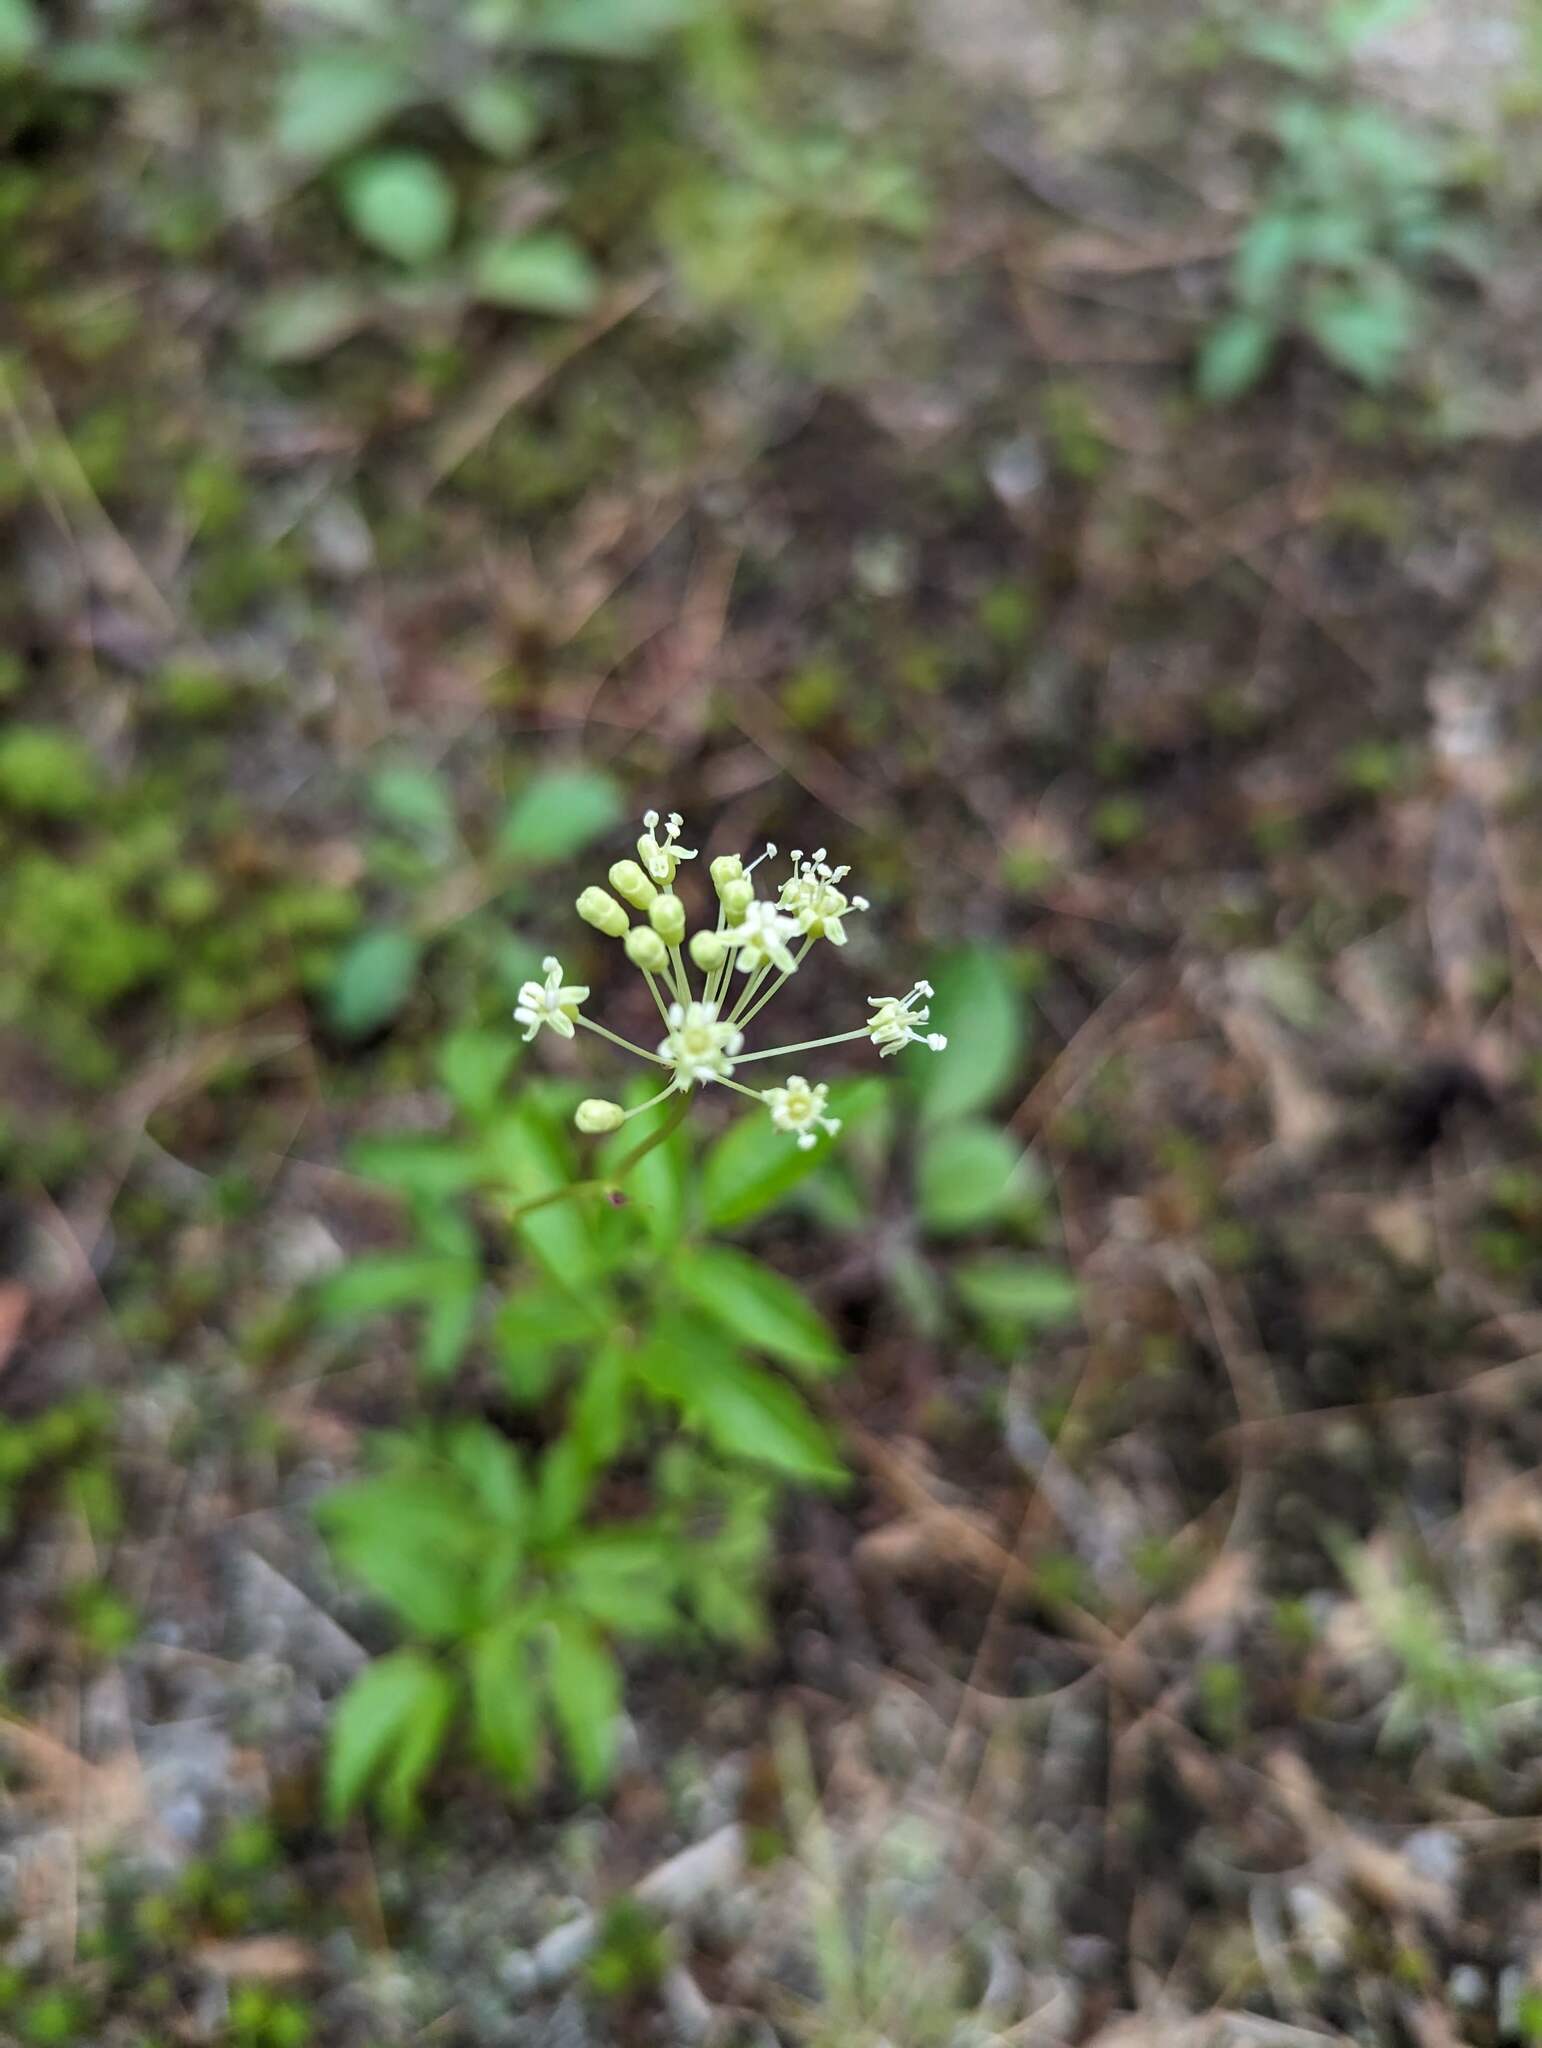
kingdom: Plantae
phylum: Tracheophyta
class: Magnoliopsida
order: Apiales
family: Araliaceae
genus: Aralia
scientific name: Aralia hispida
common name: Bristly sarsaparilla
